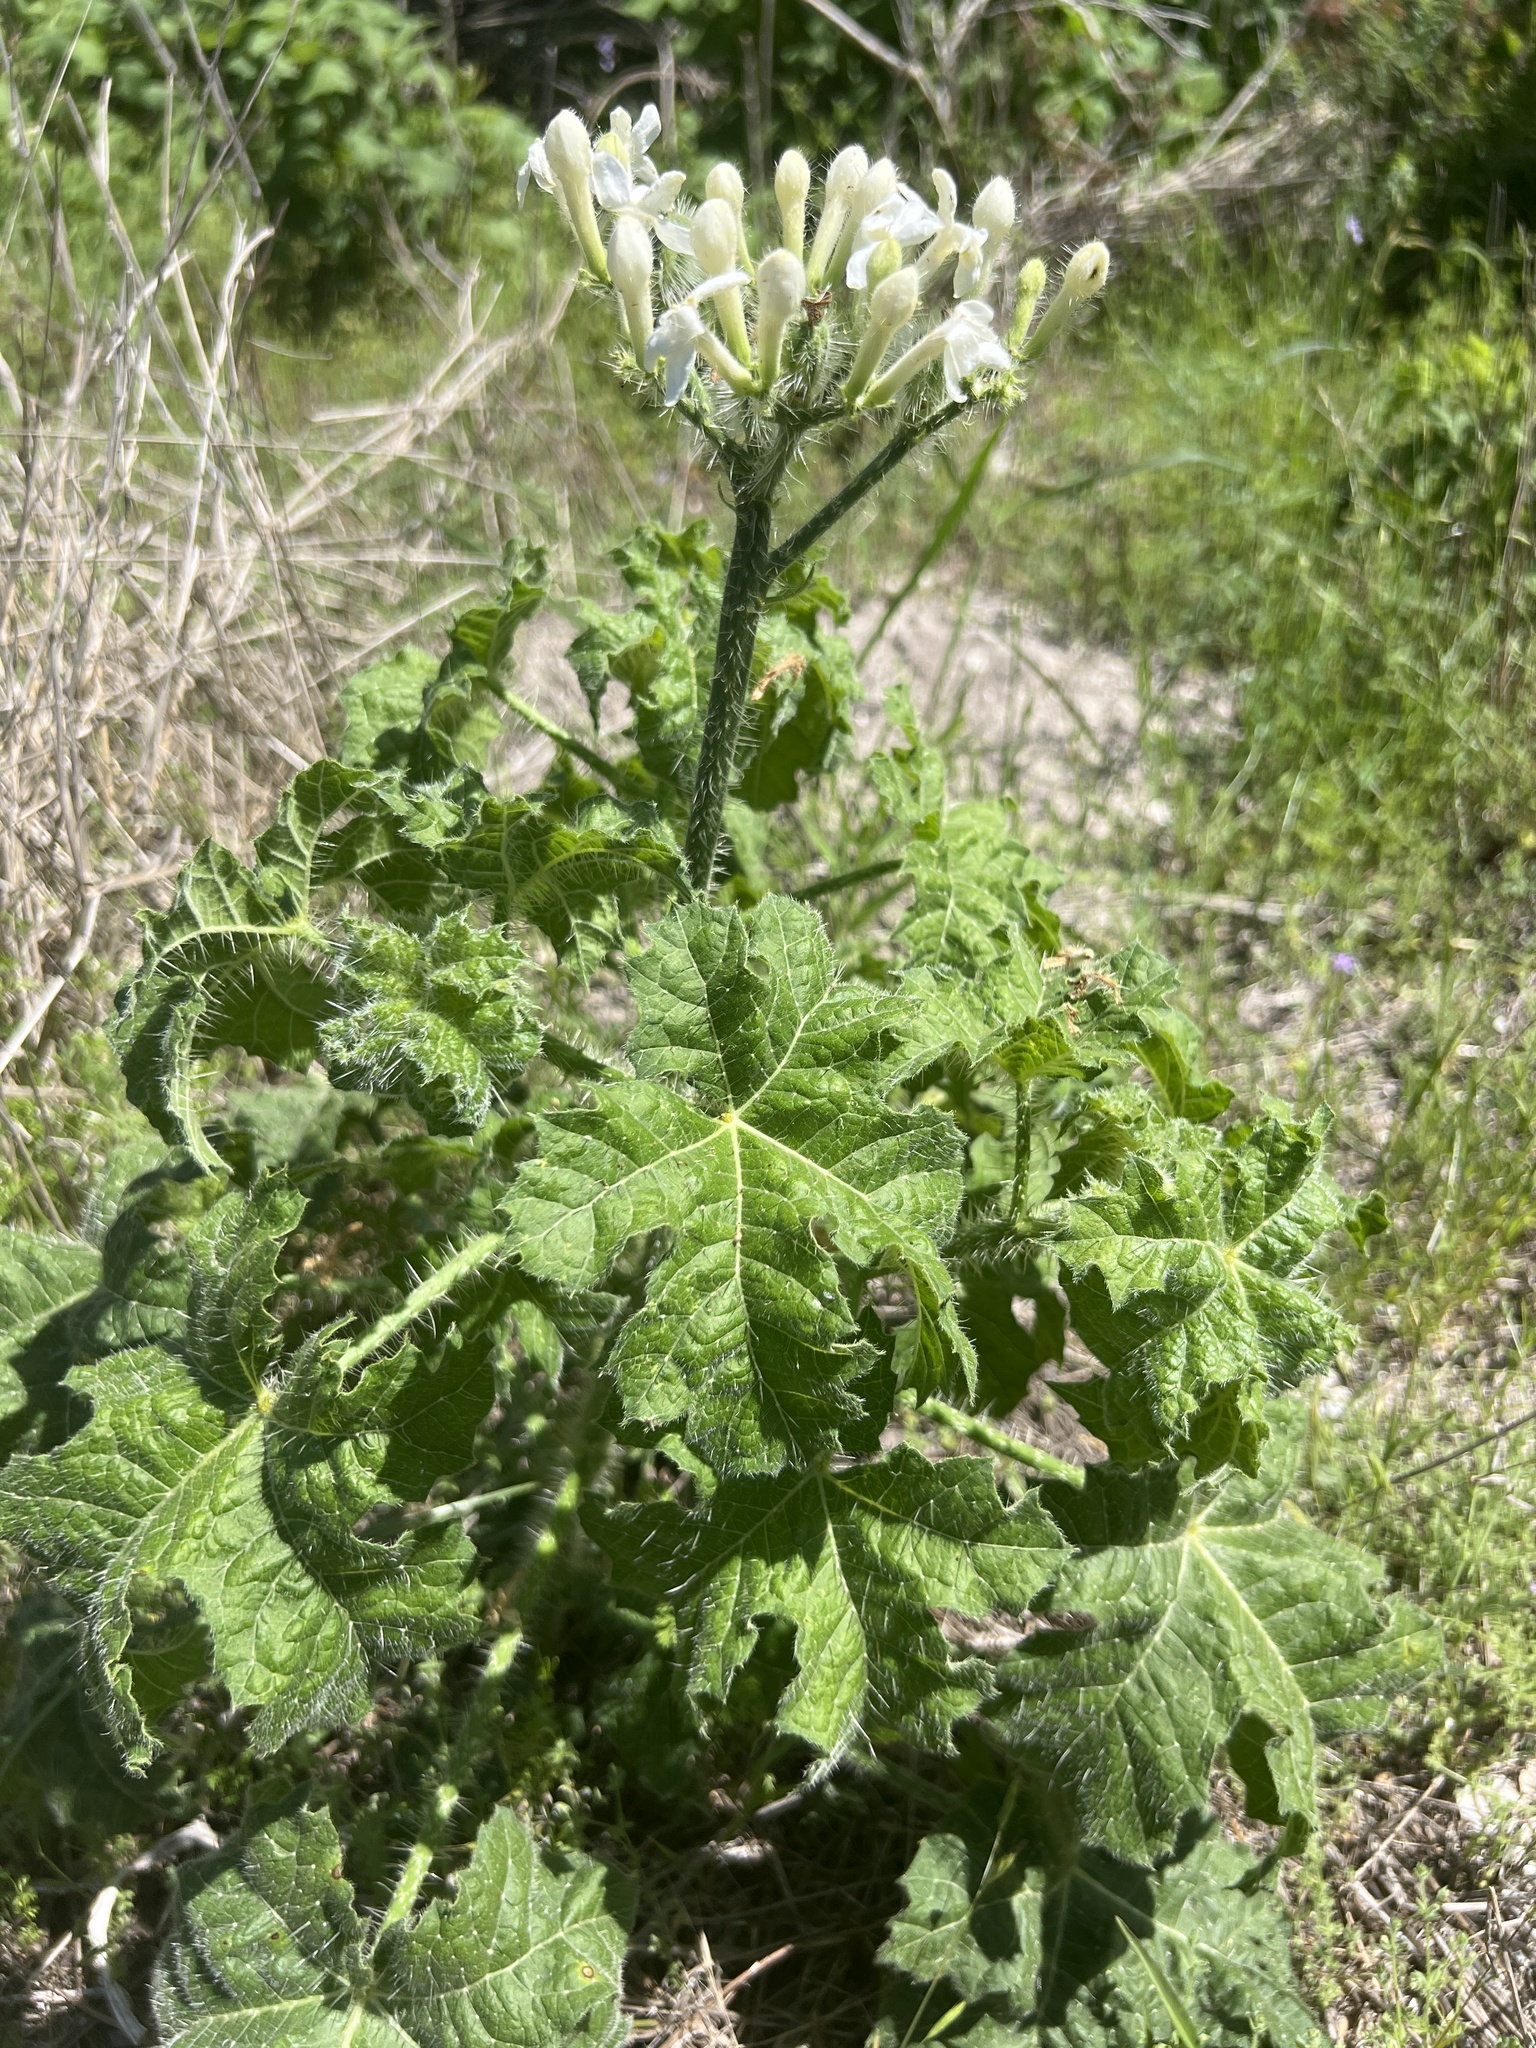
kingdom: Plantae
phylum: Tracheophyta
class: Magnoliopsida
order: Malpighiales
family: Euphorbiaceae
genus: Cnidoscolus
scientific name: Cnidoscolus texanus
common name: Texas bull-nettle
